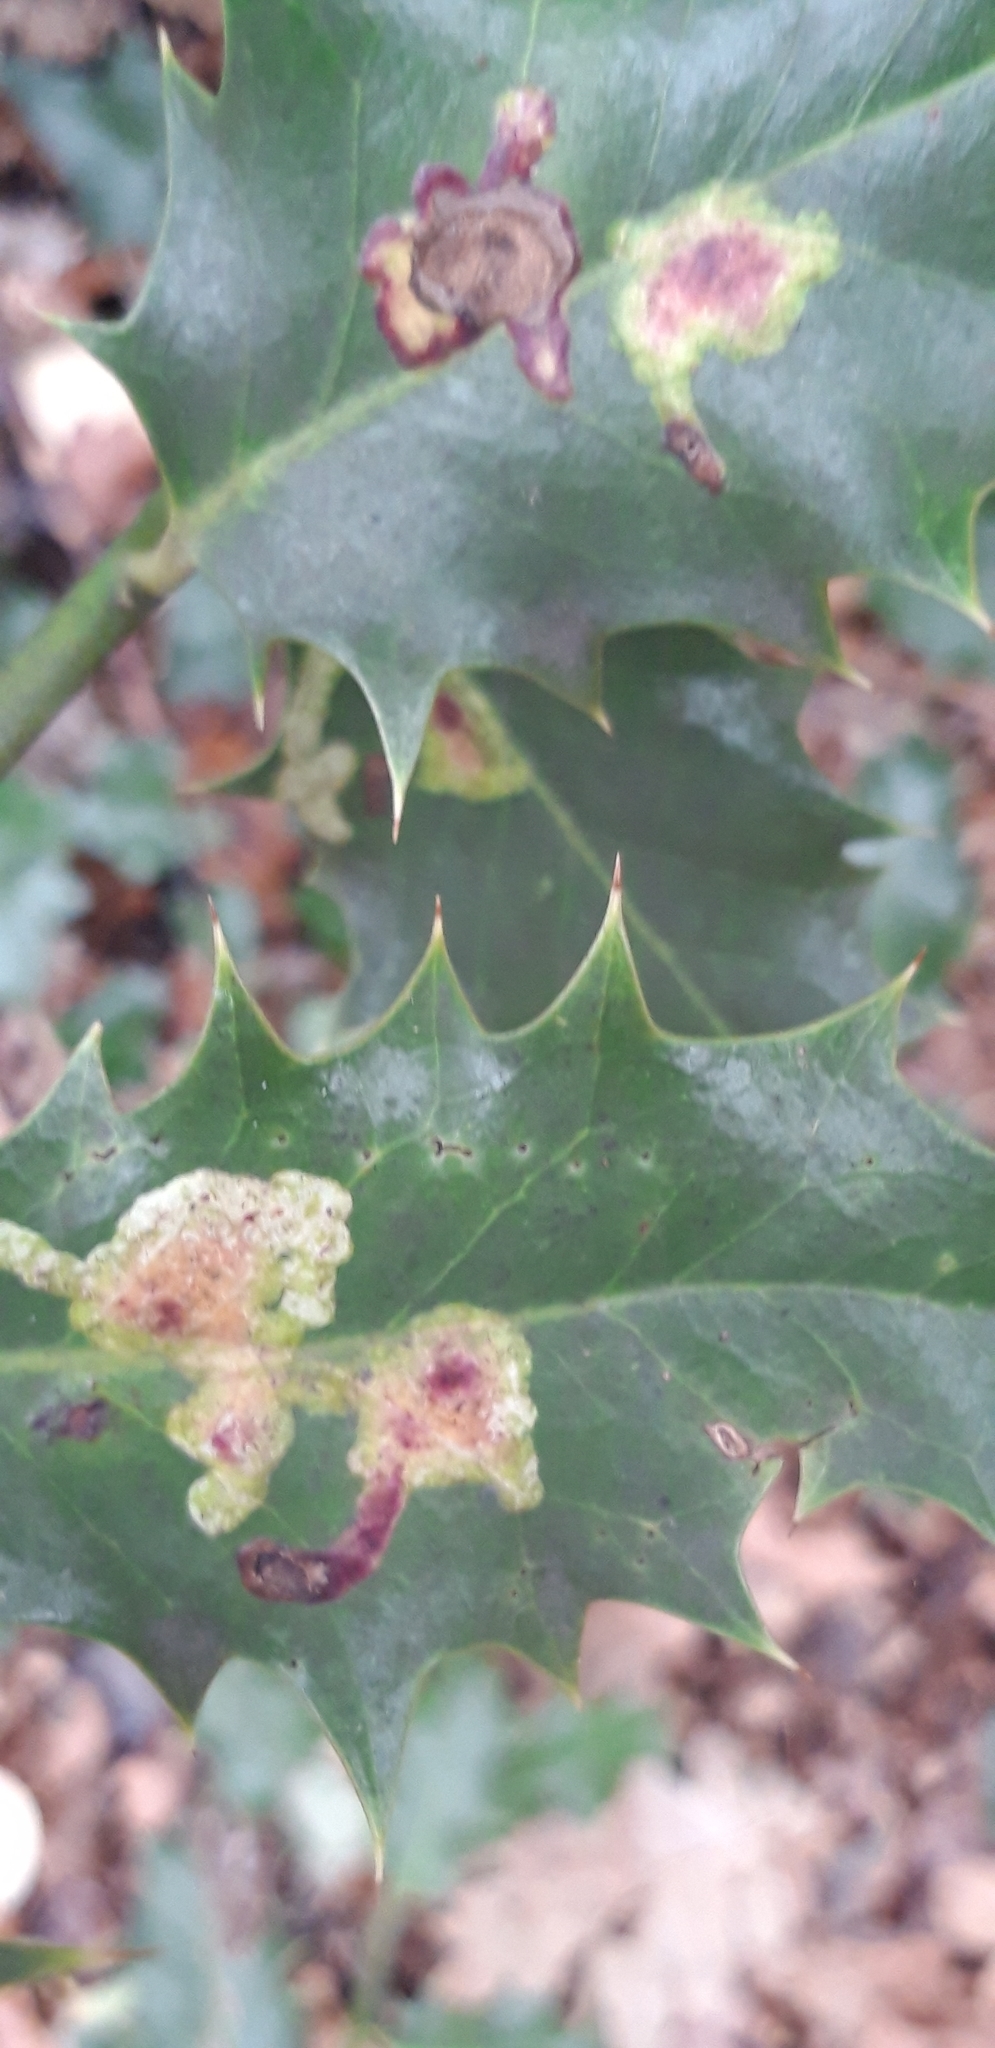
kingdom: Animalia
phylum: Arthropoda
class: Insecta
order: Diptera
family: Agromyzidae
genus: Phytomyza
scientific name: Phytomyza ilicis
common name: Holly leafminer
